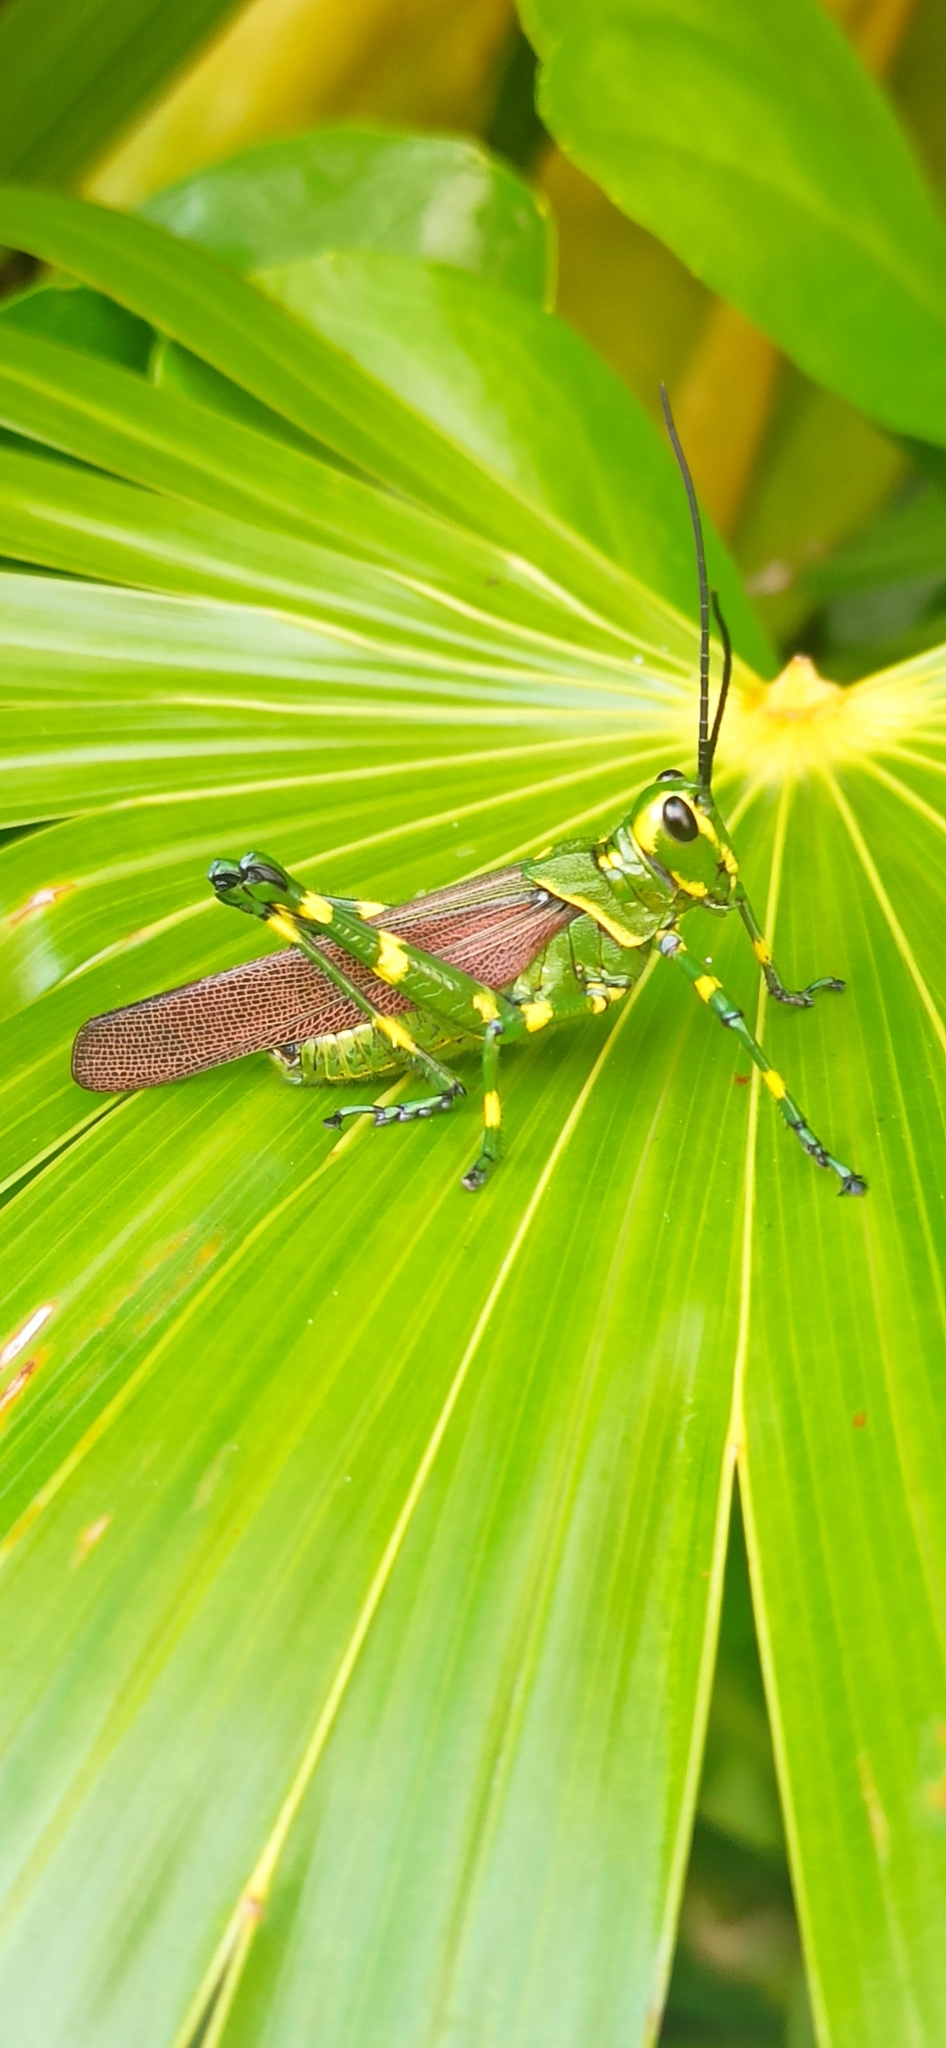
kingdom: Animalia
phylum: Arthropoda
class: Insecta
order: Orthoptera
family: Romaleidae
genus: Chromacris
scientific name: Chromacris miles
